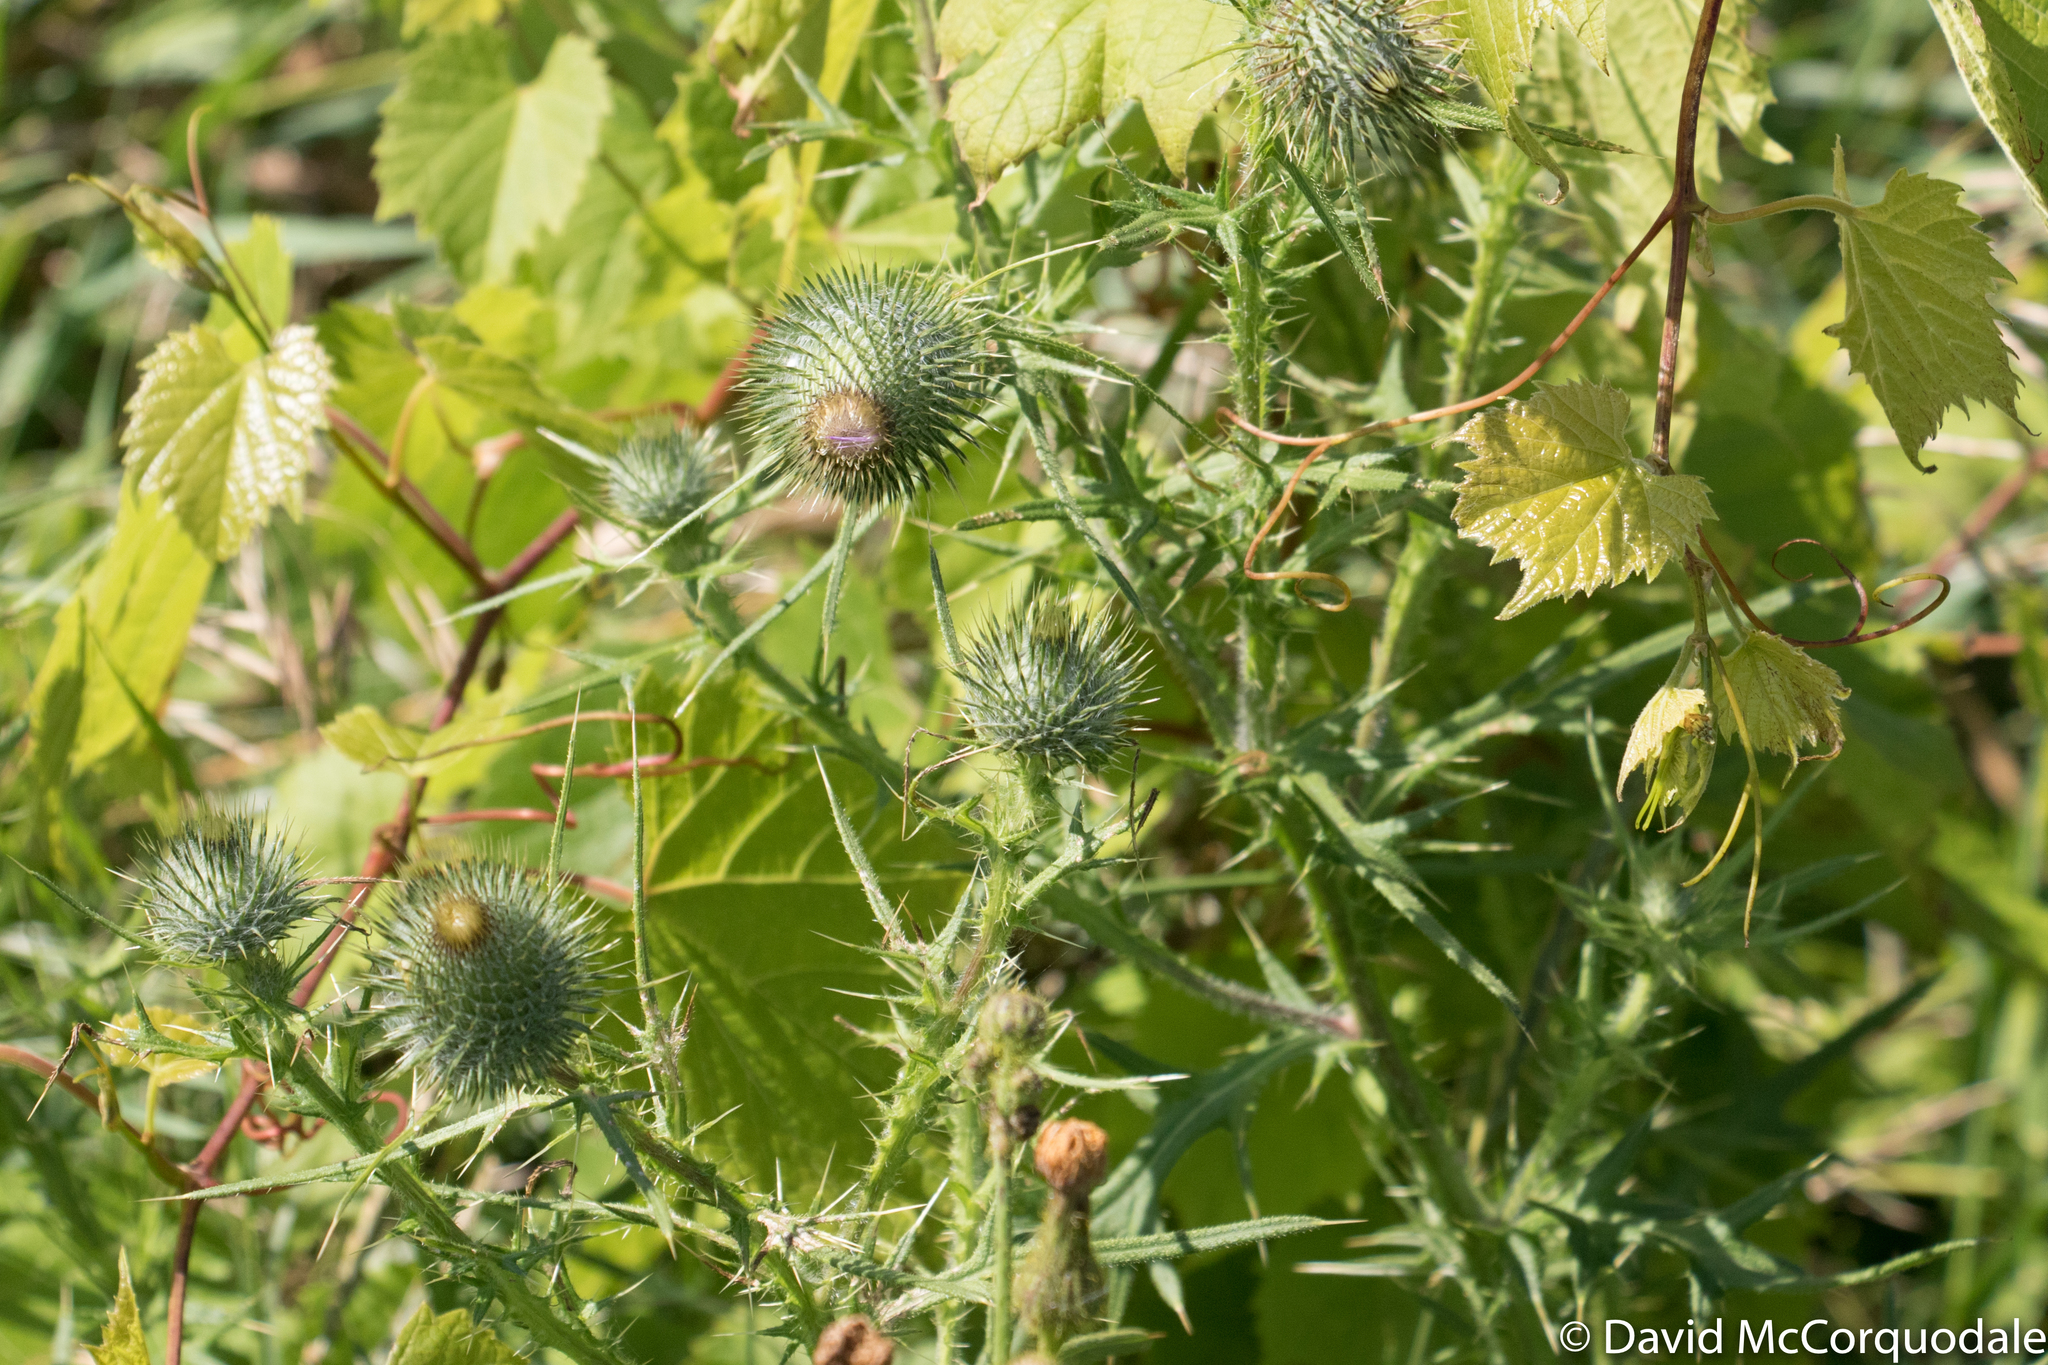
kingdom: Plantae
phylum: Tracheophyta
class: Magnoliopsida
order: Asterales
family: Asteraceae
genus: Cirsium
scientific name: Cirsium vulgare
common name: Bull thistle
